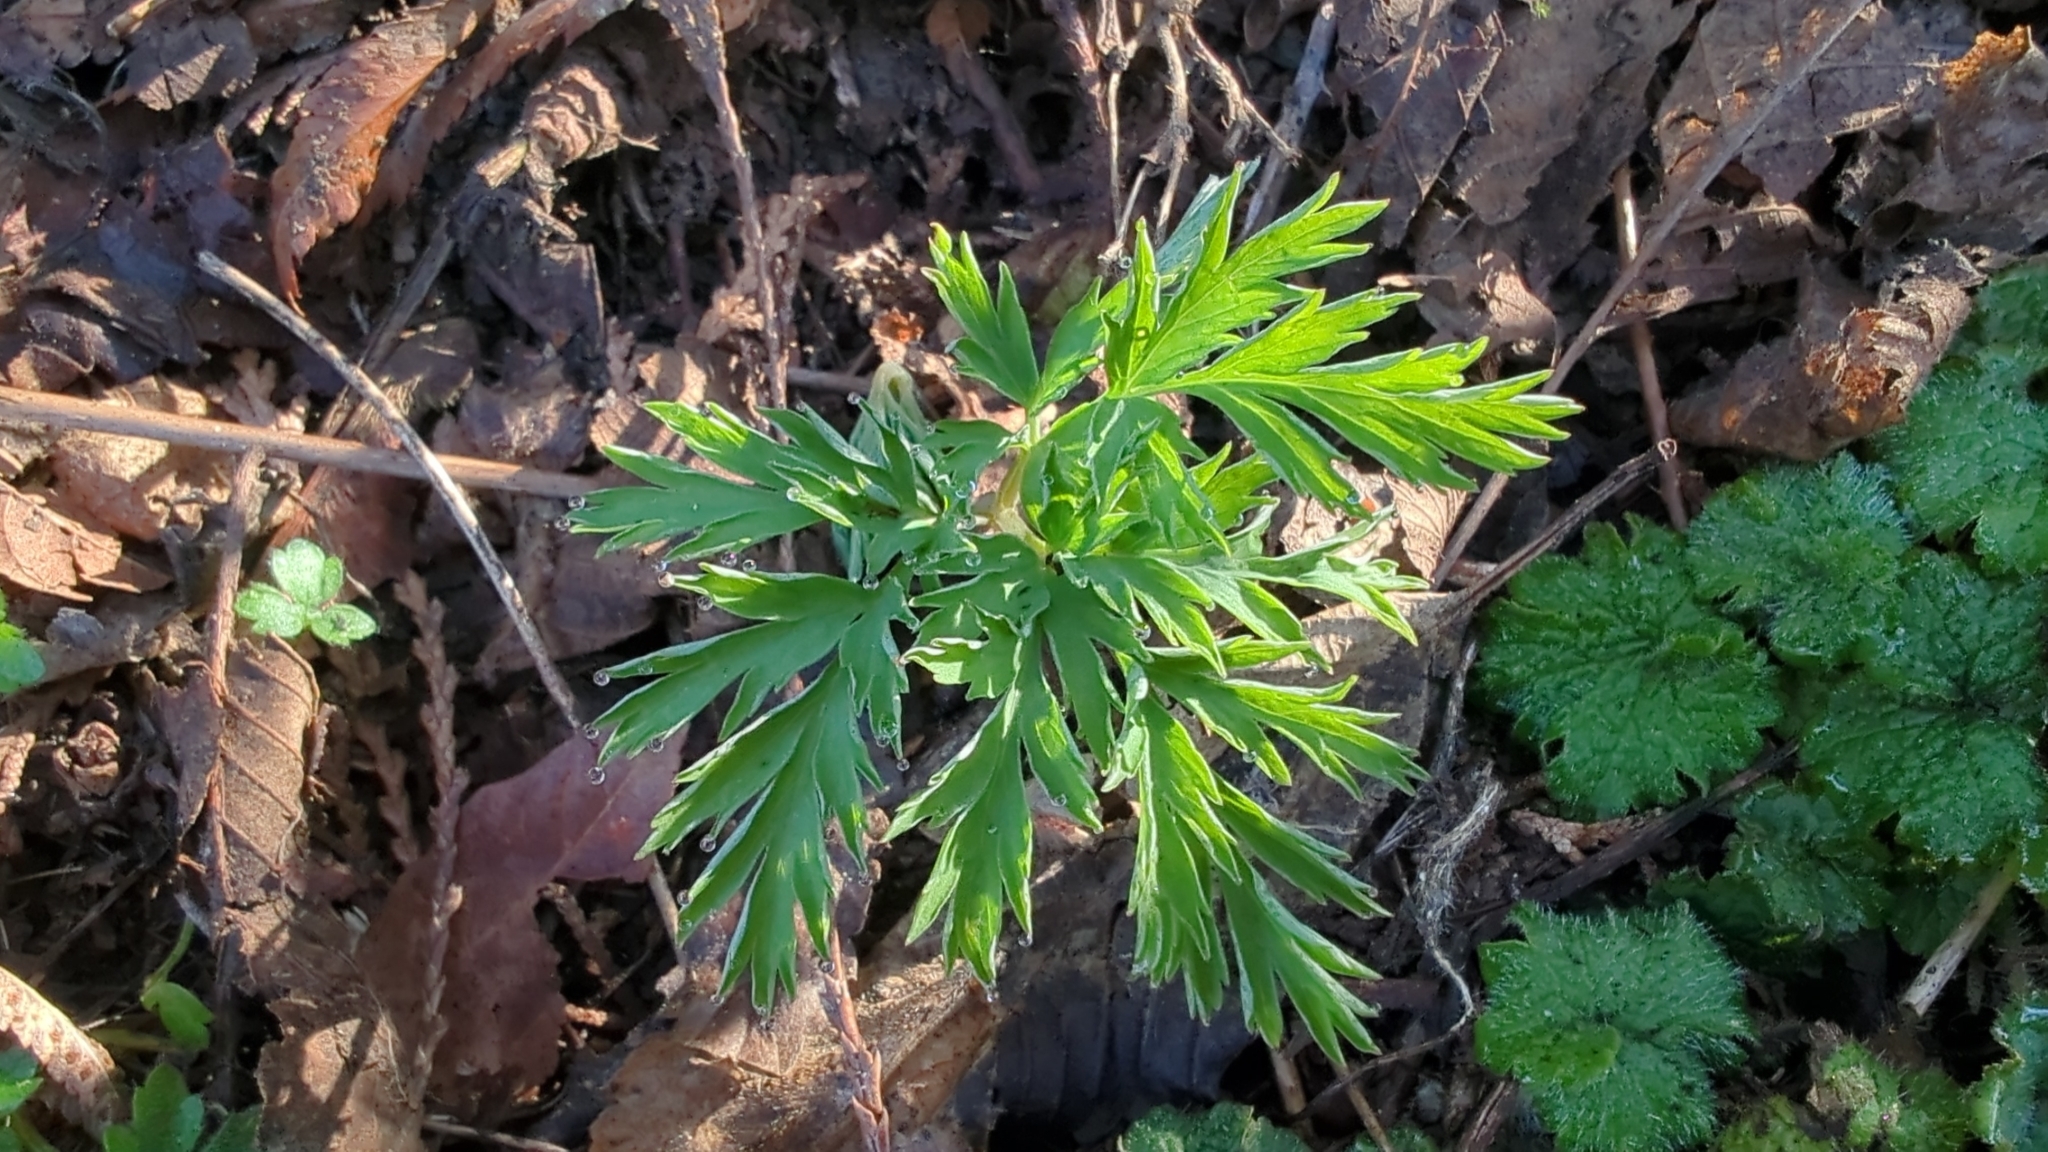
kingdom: Plantae
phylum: Tracheophyta
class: Magnoliopsida
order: Ranunculales
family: Papaveraceae
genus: Dicentra
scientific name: Dicentra formosa
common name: Bleeding-heart
